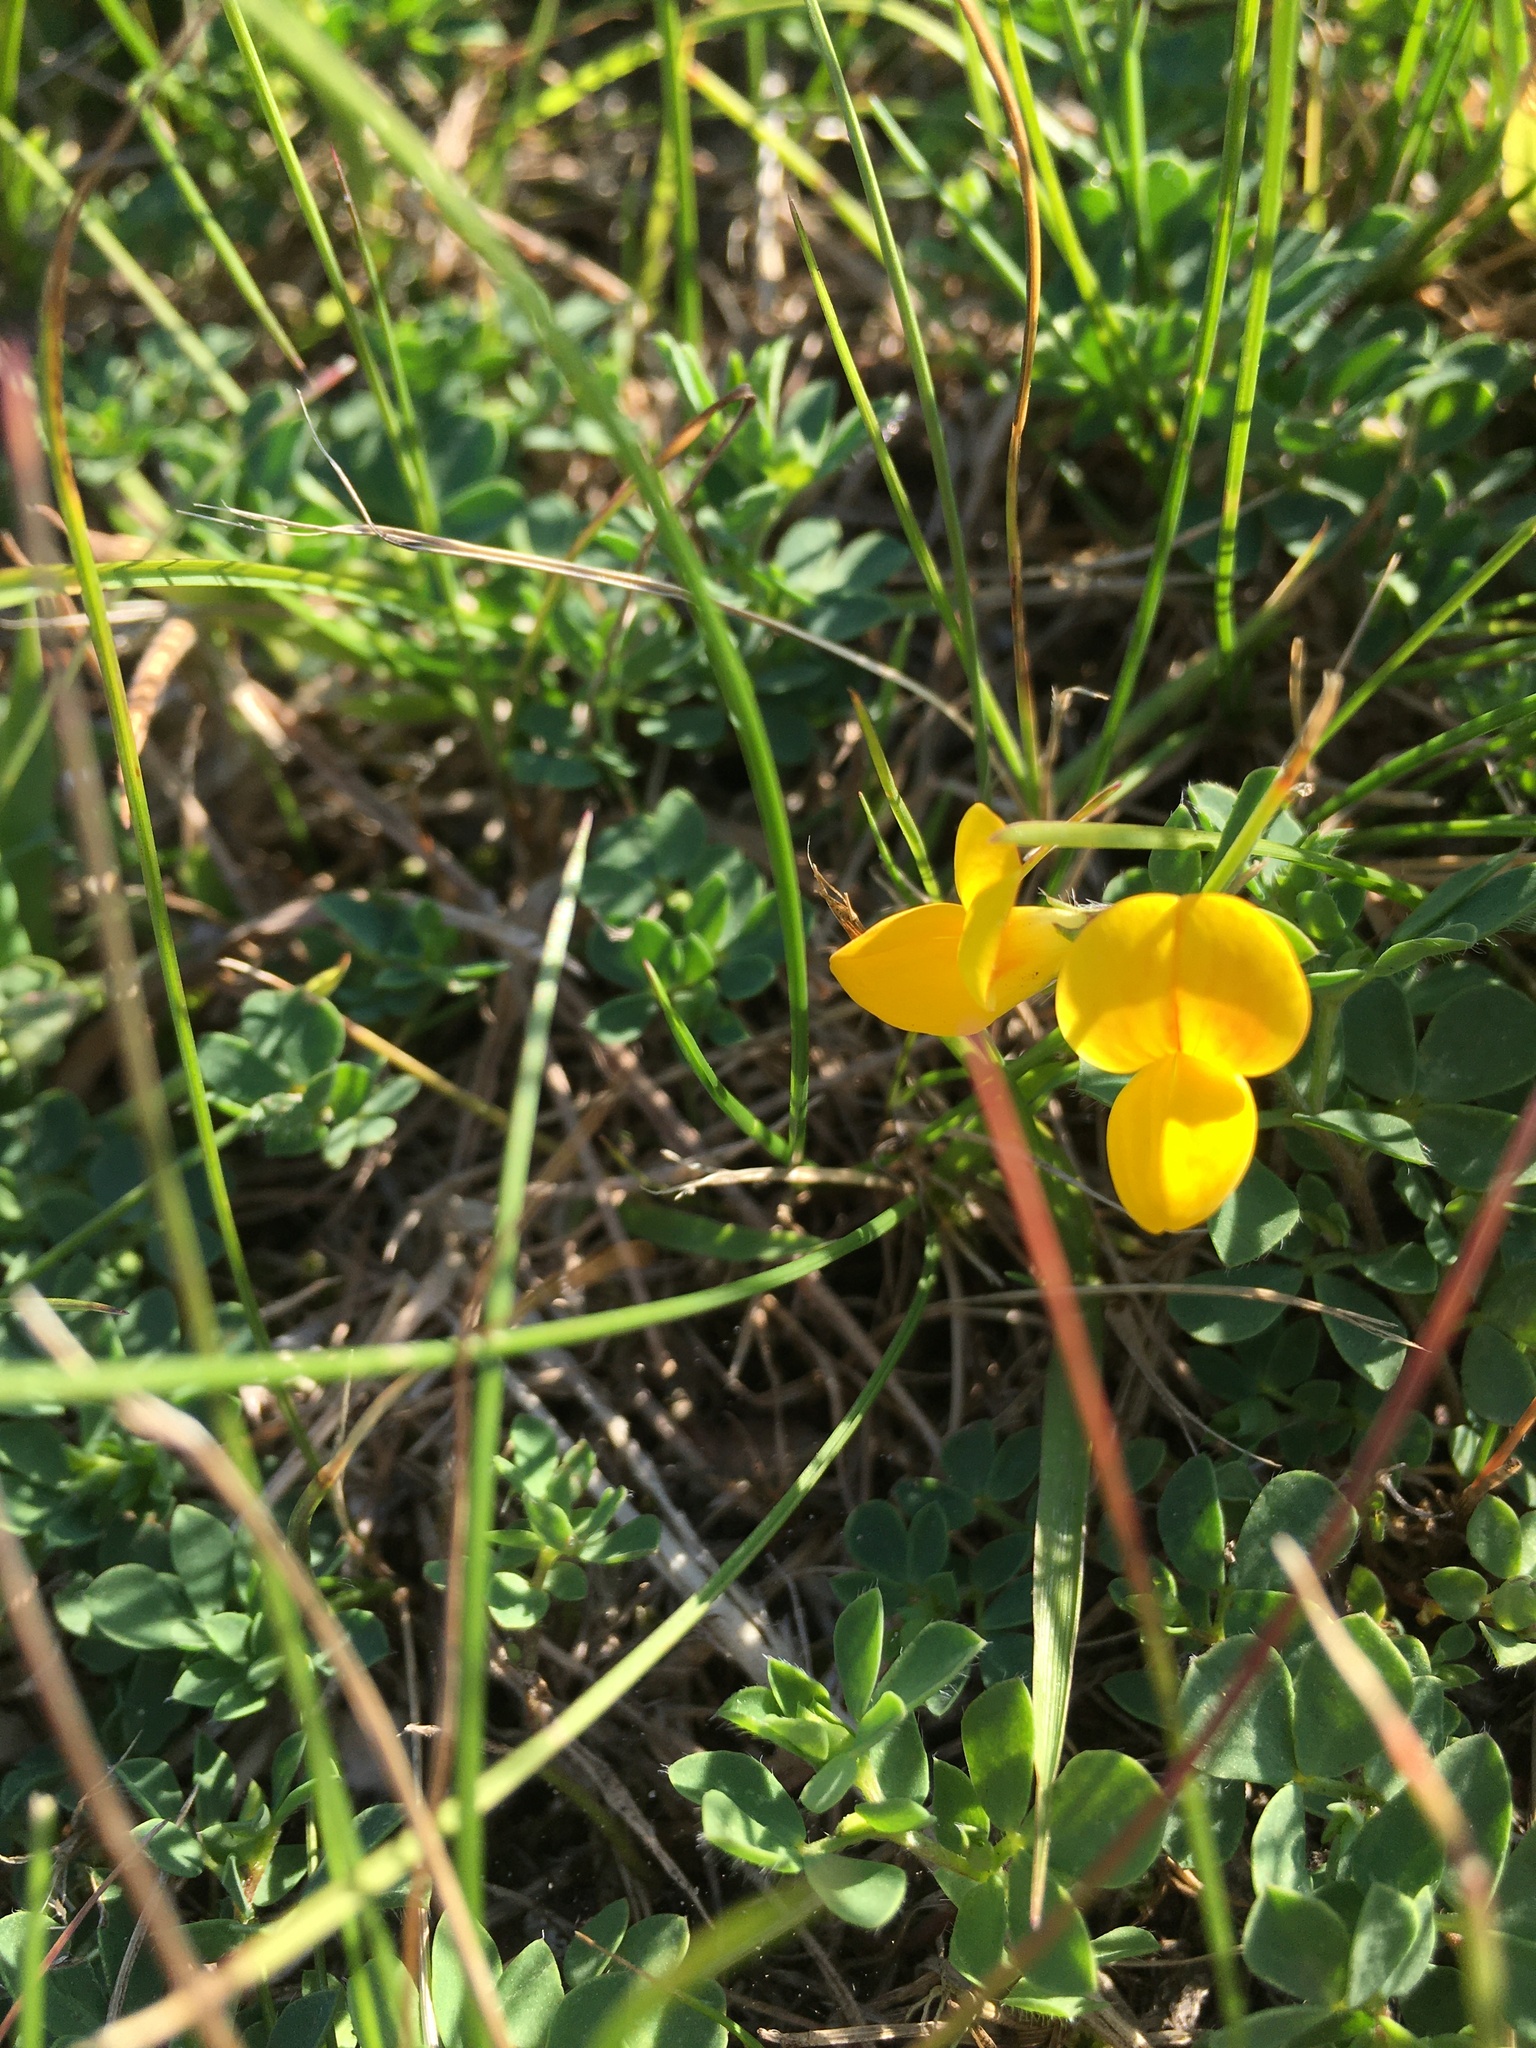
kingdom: Plantae
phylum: Tracheophyta
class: Magnoliopsida
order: Fabales
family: Fabaceae
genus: Lotus
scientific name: Lotus corniculatus
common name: Common bird's-foot-trefoil
